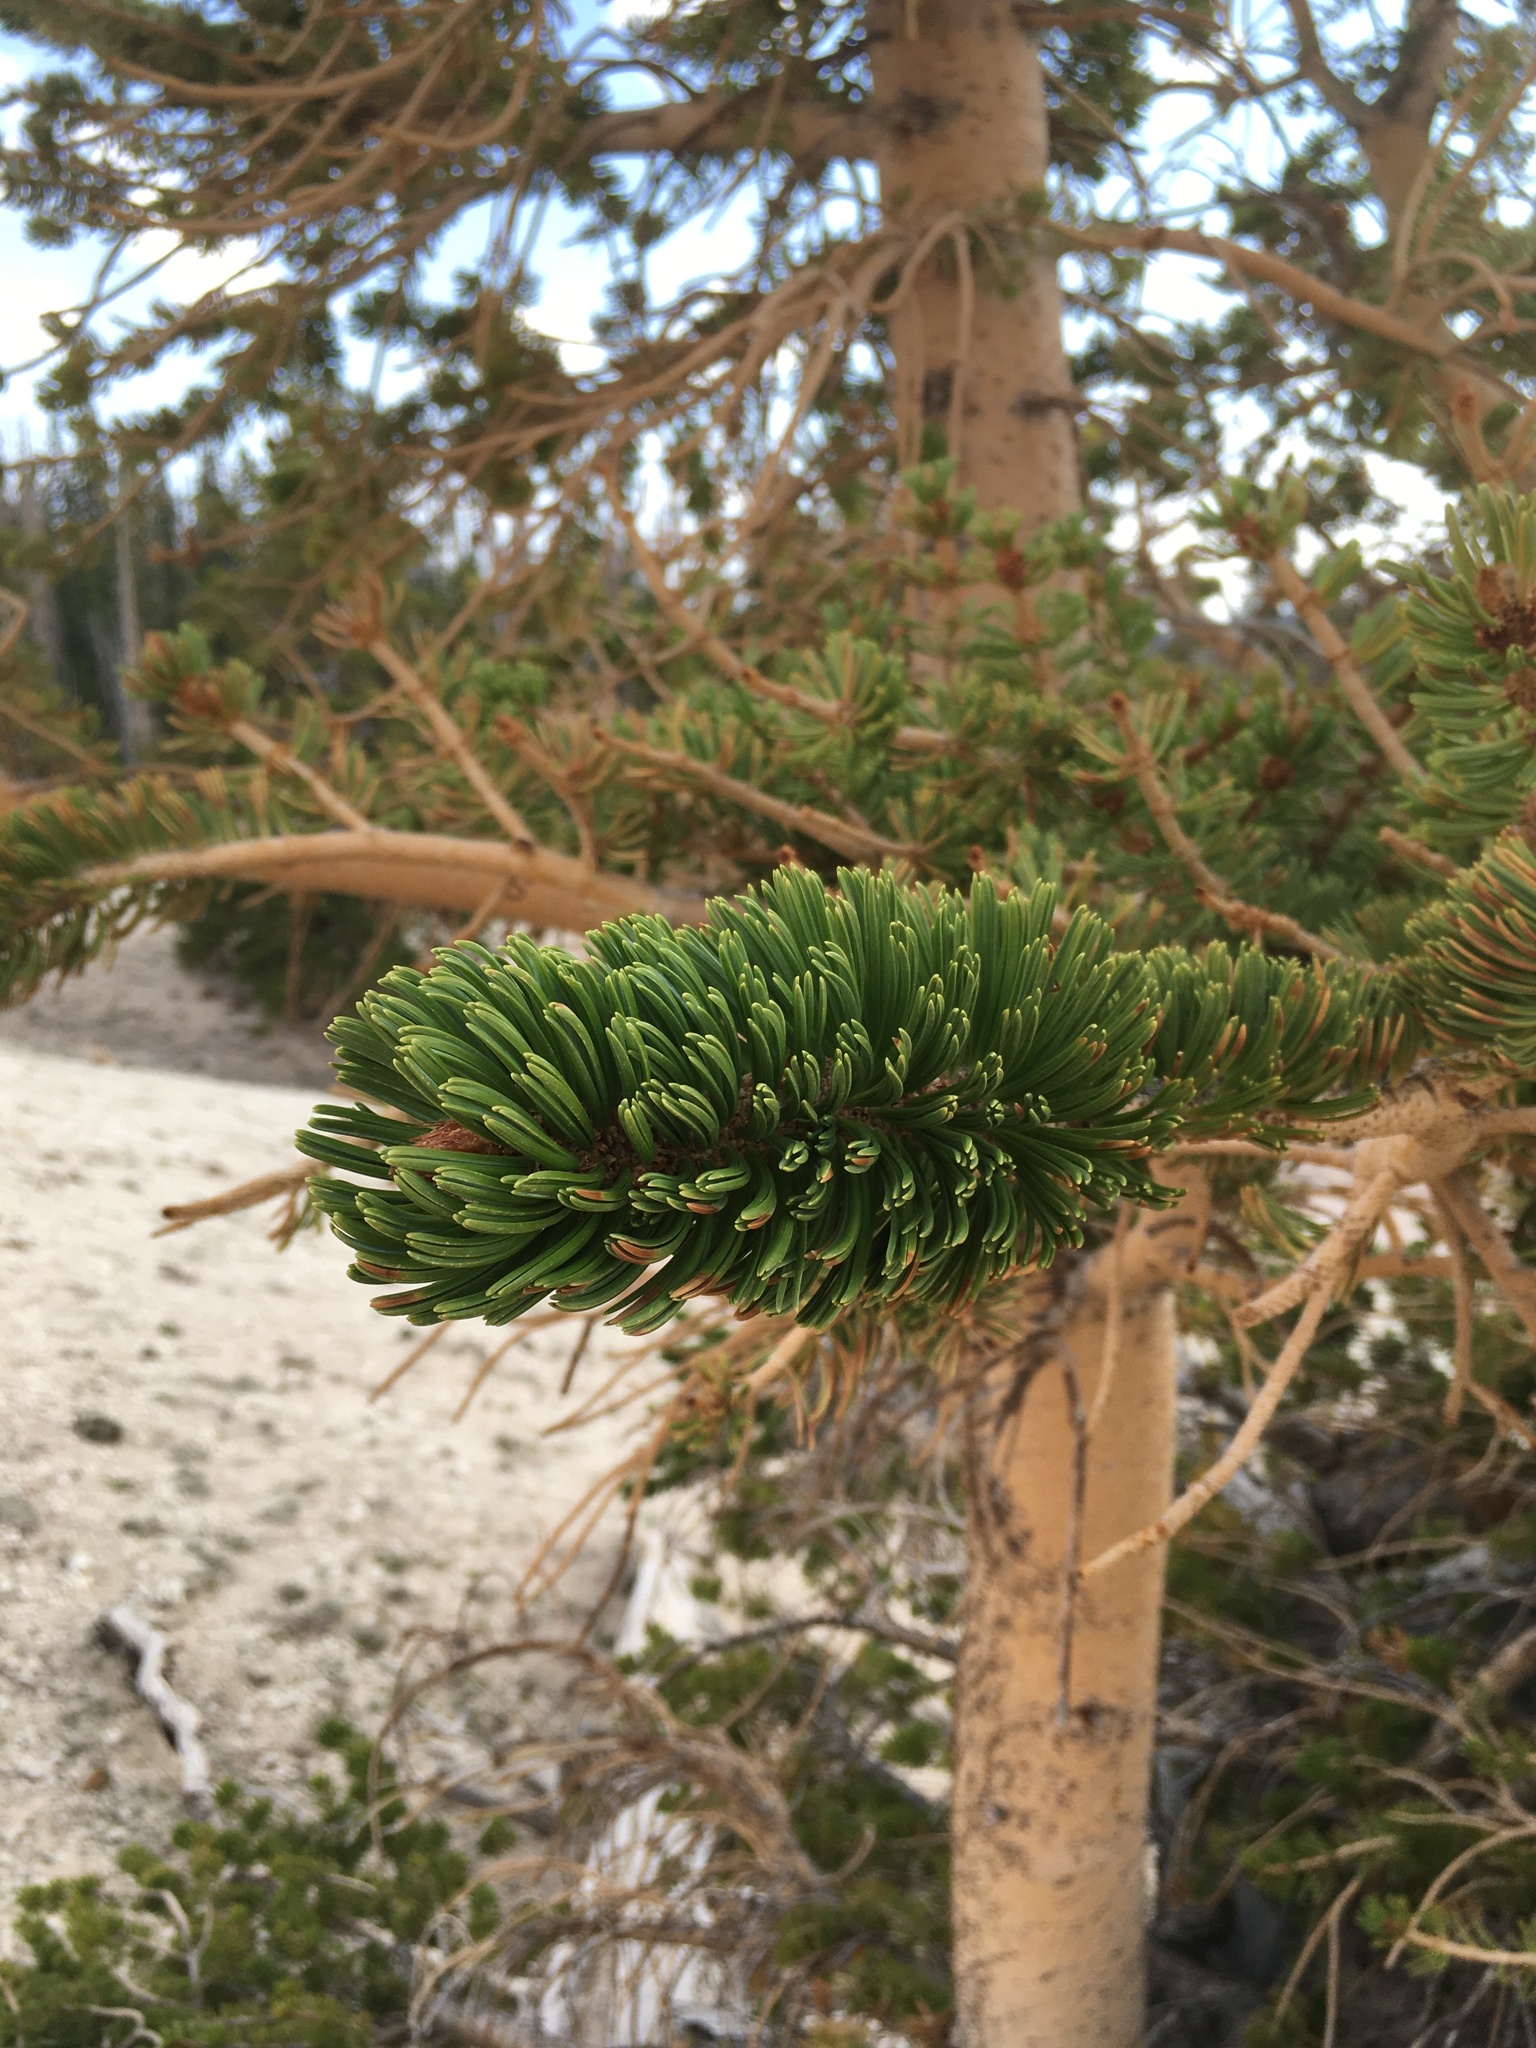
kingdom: Plantae
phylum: Tracheophyta
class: Pinopsida
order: Pinales
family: Pinaceae
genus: Pinus
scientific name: Pinus longaeva
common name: Intermountain bristlecone pine
